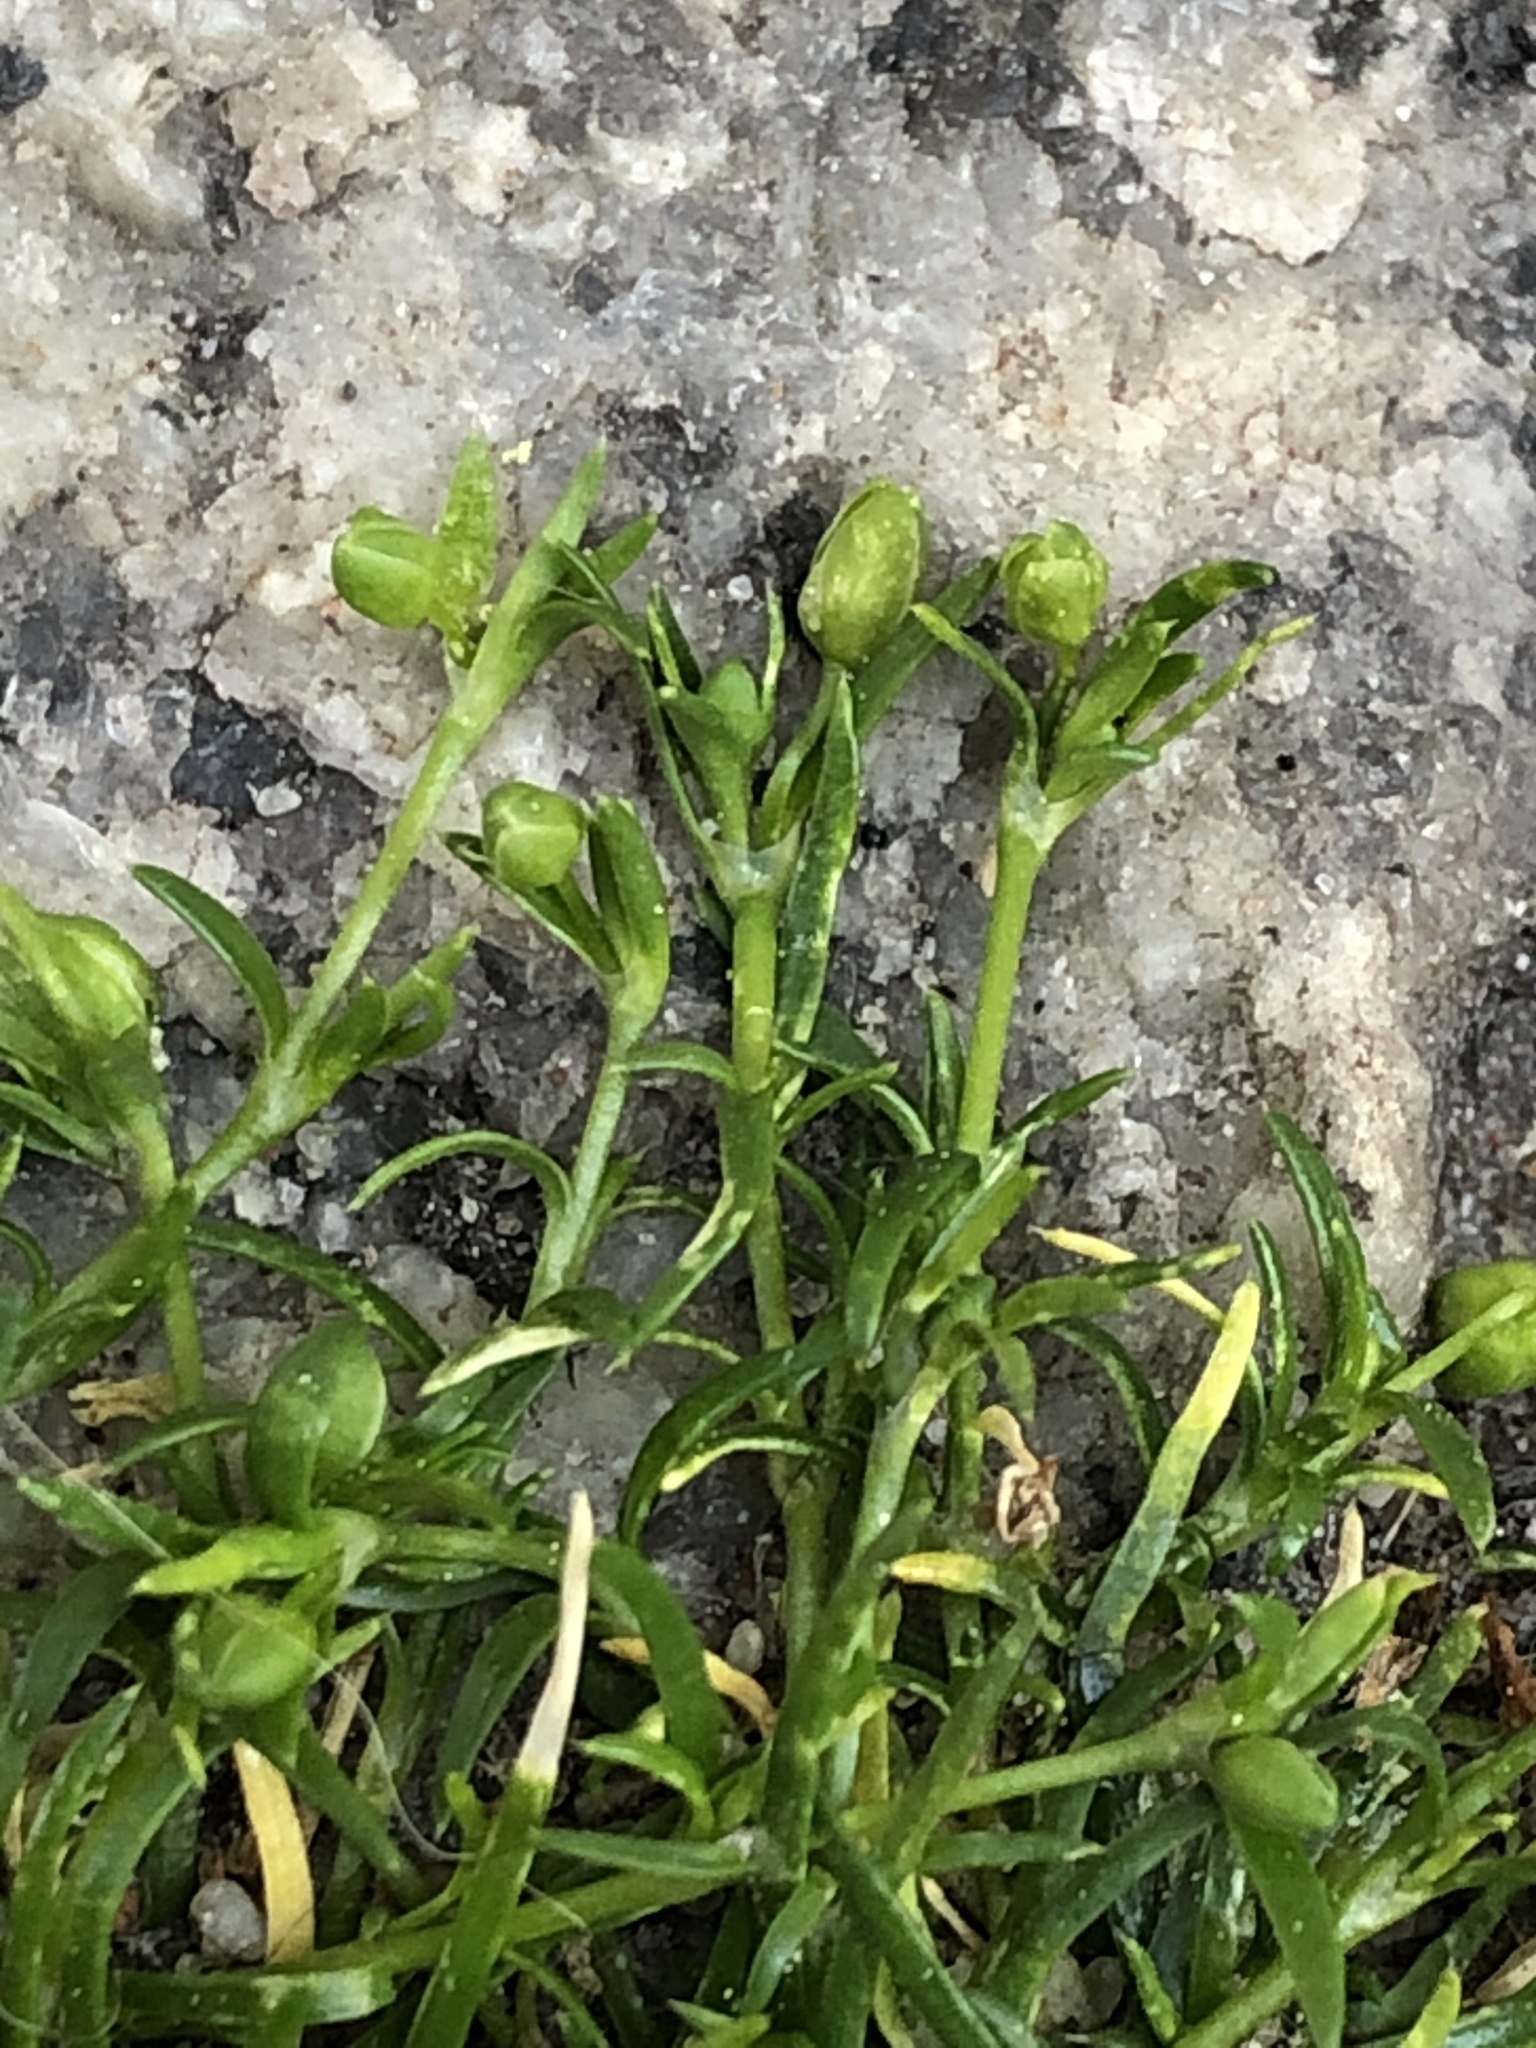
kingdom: Plantae
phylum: Tracheophyta
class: Magnoliopsida
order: Caryophyllales
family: Caryophyllaceae
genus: Sagina
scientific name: Sagina procumbens
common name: Procumbent pearlwort
